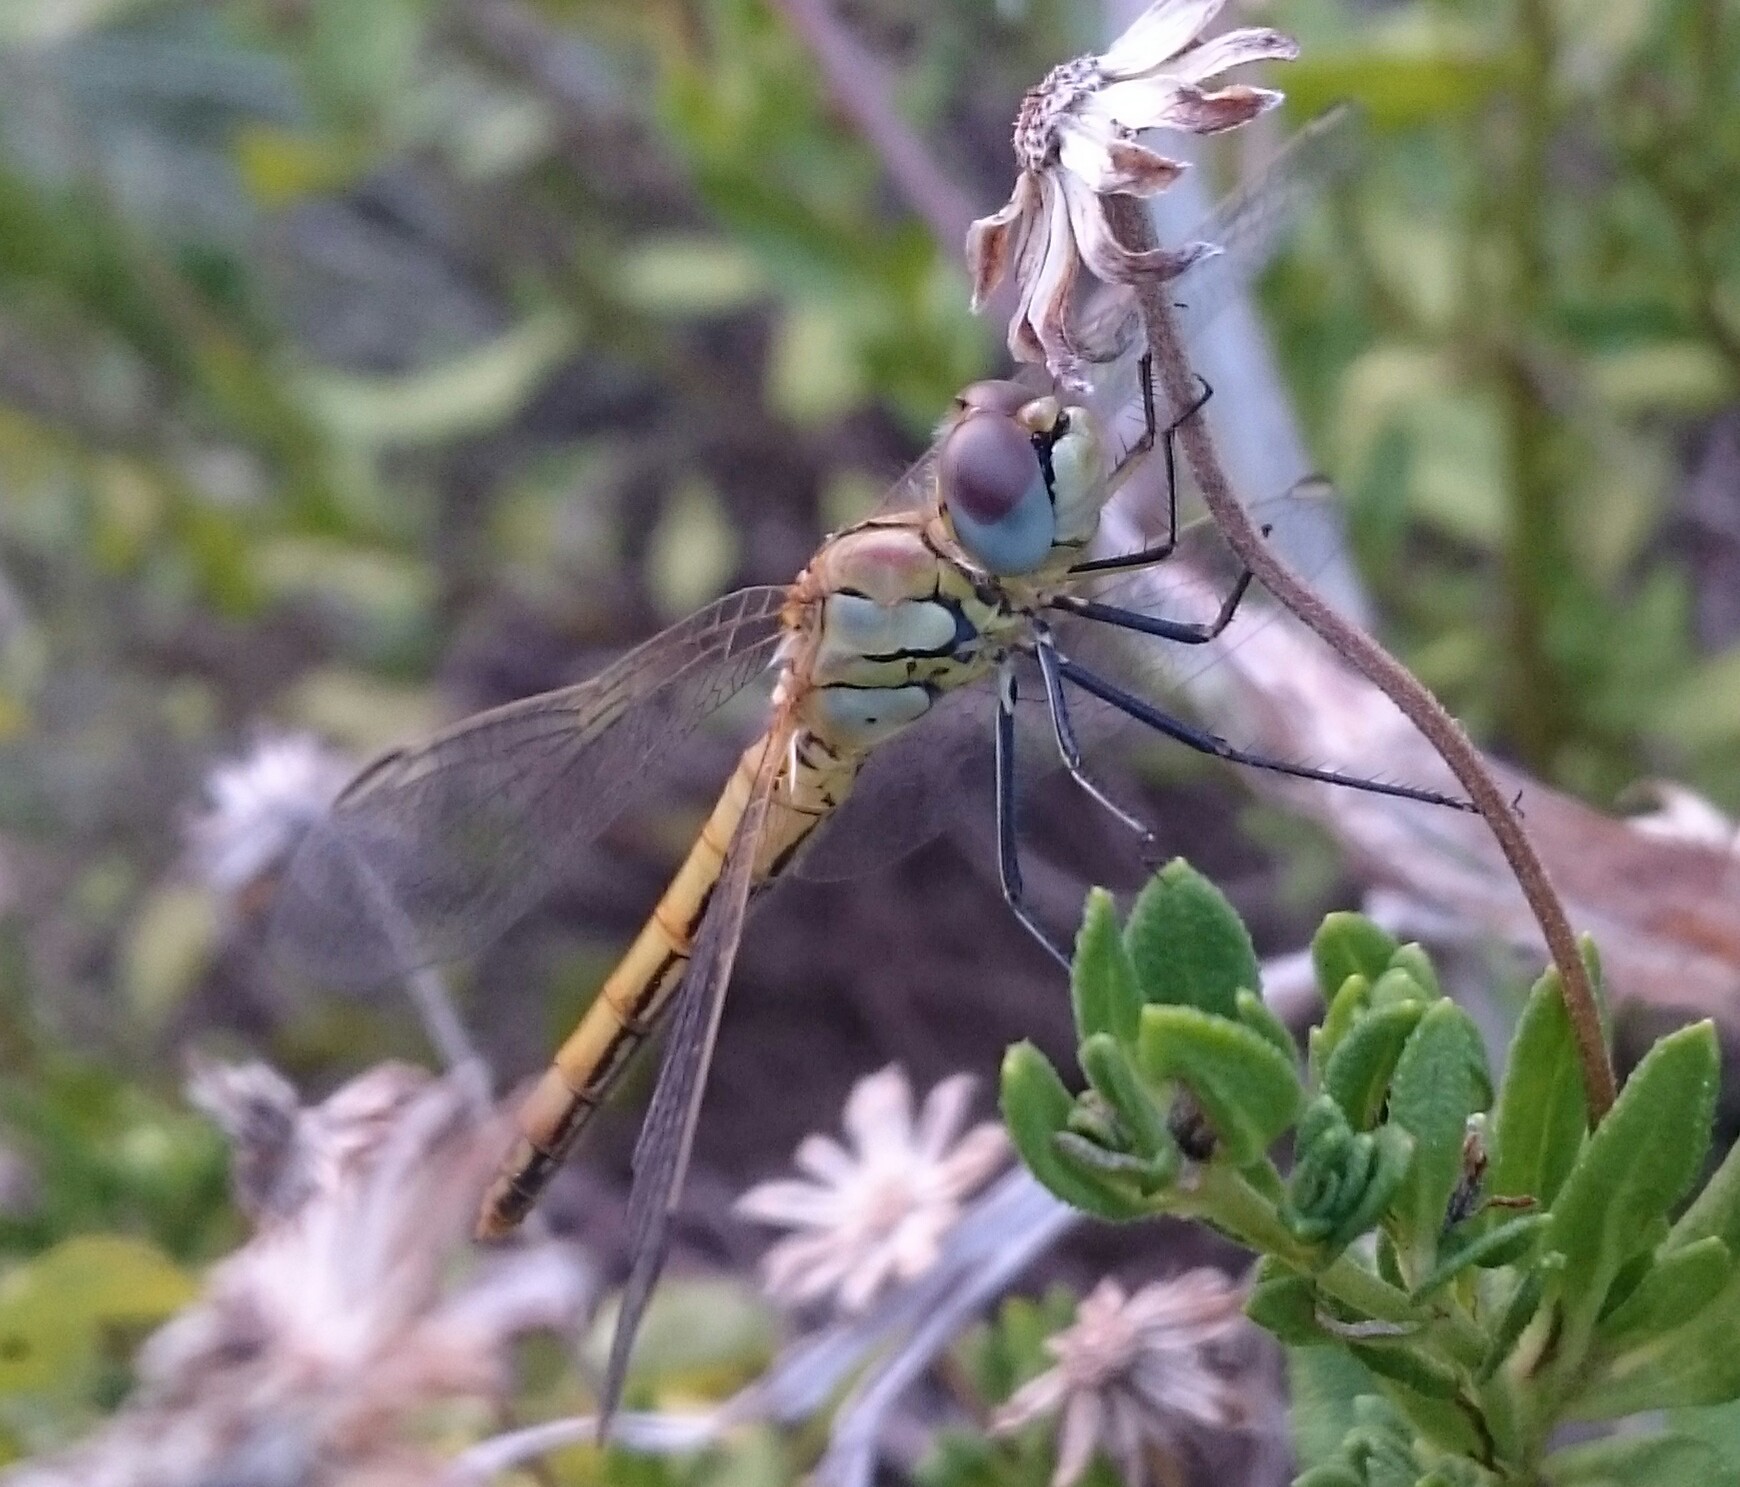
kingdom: Animalia
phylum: Arthropoda
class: Insecta
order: Odonata
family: Libellulidae
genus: Sympetrum
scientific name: Sympetrum fonscolombii
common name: Red-veined darter
